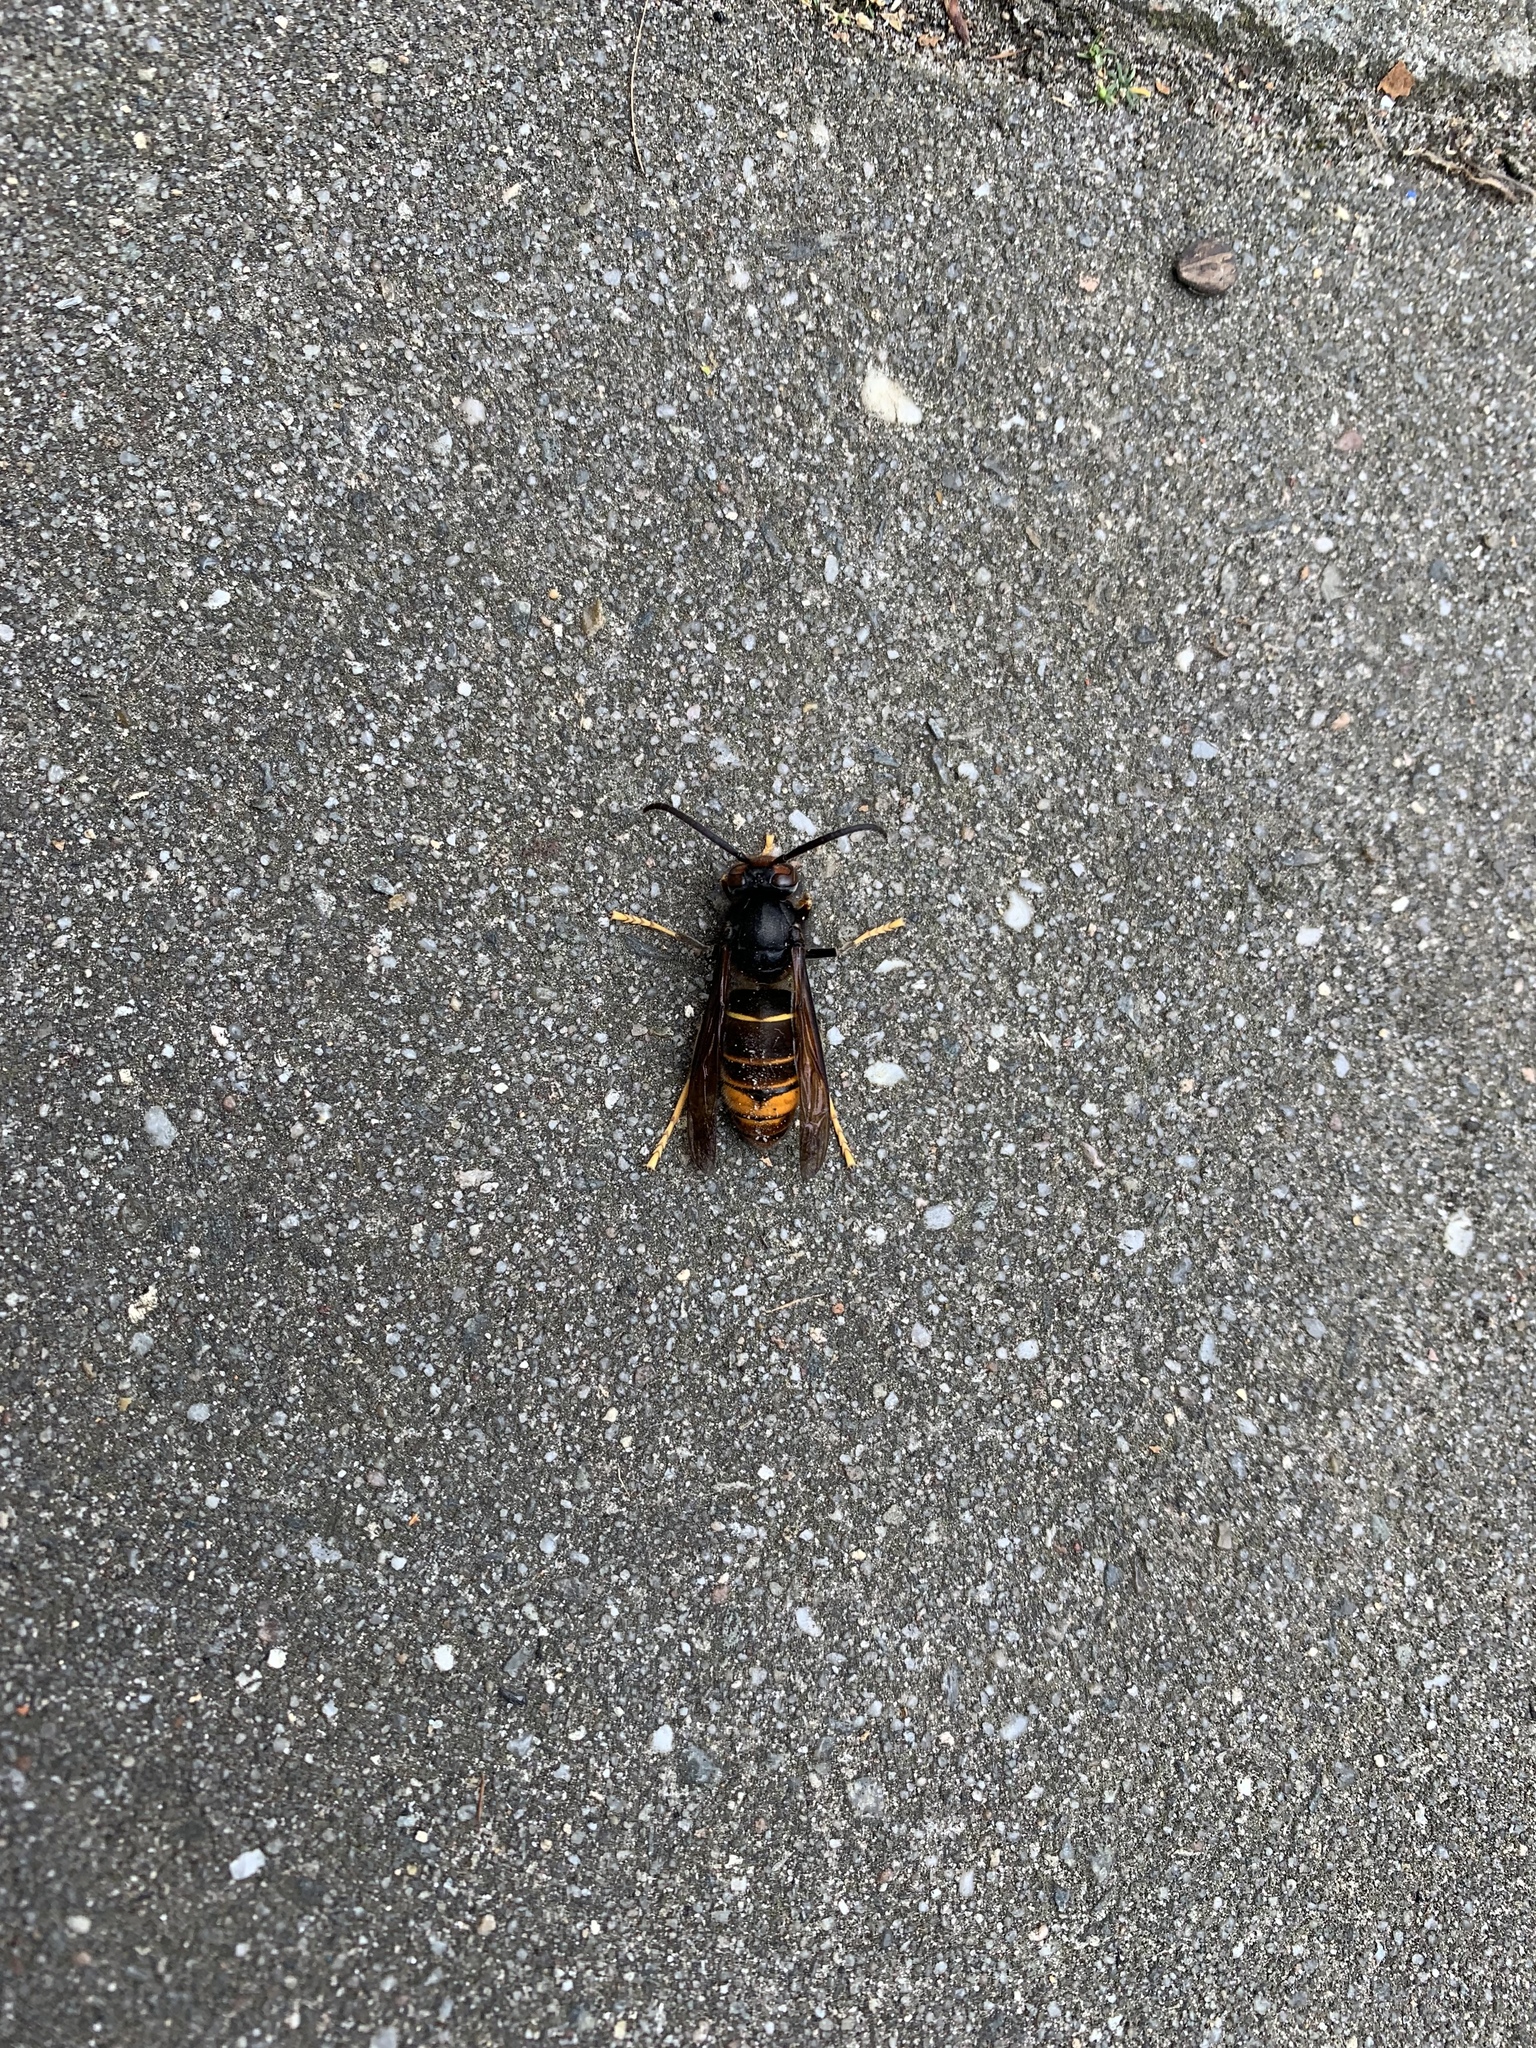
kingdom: Animalia
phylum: Arthropoda
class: Insecta
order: Hymenoptera
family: Vespidae
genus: Vespa
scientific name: Vespa velutina
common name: Asian hornet
